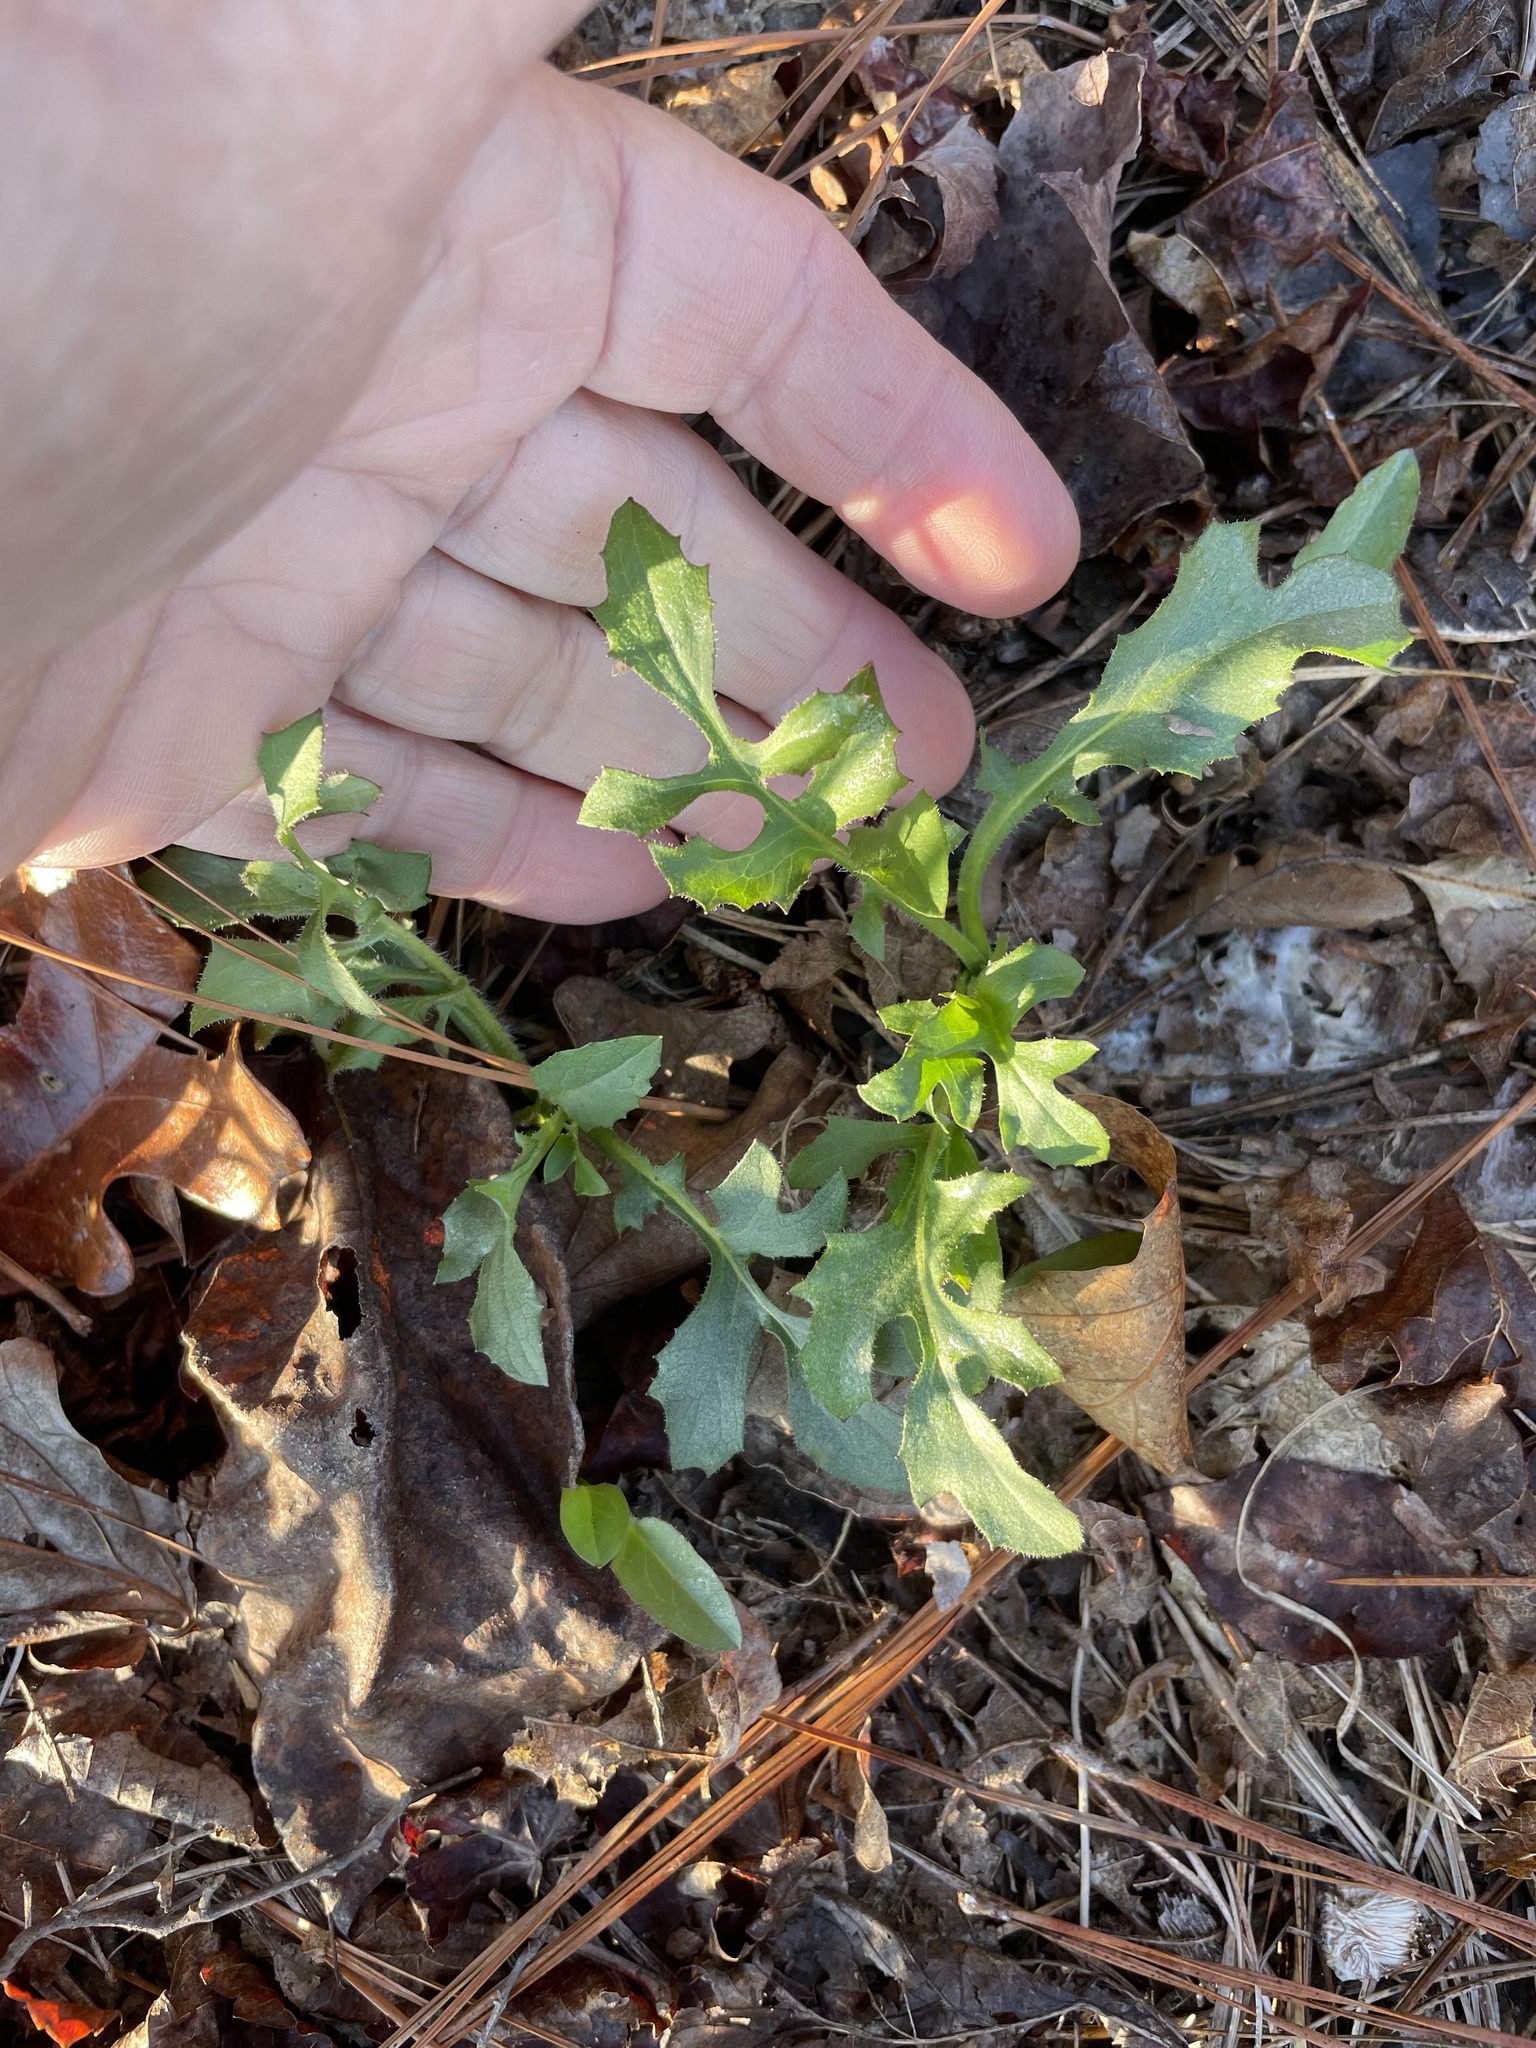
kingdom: Plantae
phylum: Tracheophyta
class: Magnoliopsida
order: Asterales
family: Asteraceae
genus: Nabalus
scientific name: Nabalus serpentarius
